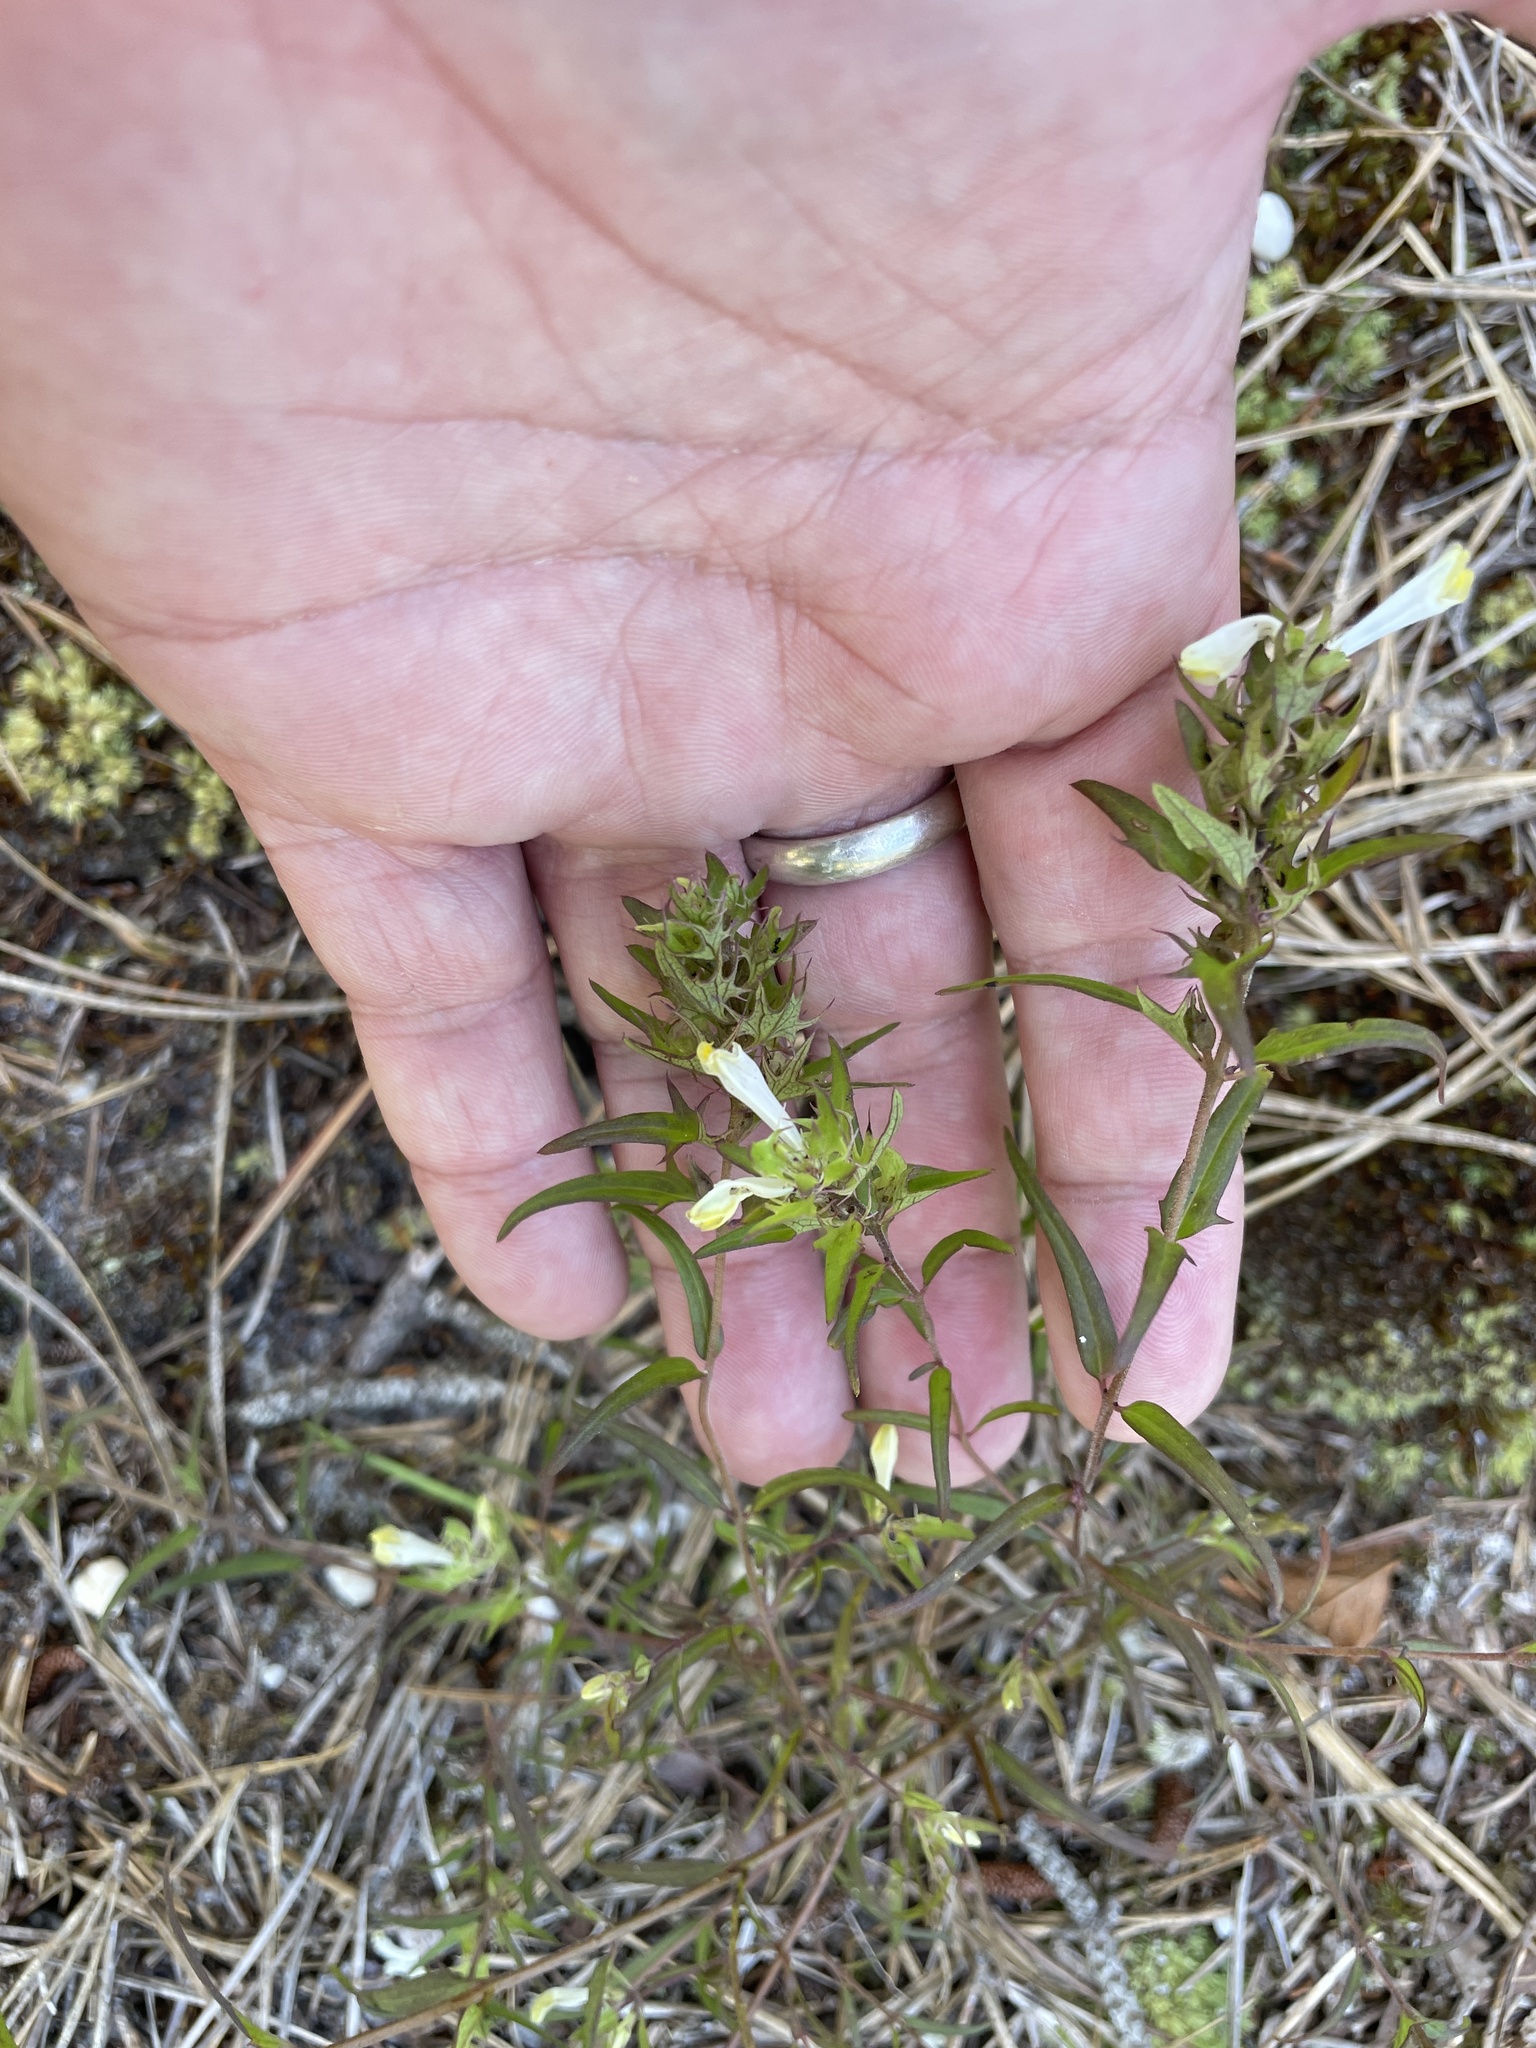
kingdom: Plantae
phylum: Tracheophyta
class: Magnoliopsida
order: Lamiales
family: Orobanchaceae
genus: Melampyrum
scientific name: Melampyrum lineare
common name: American cow-wheat
